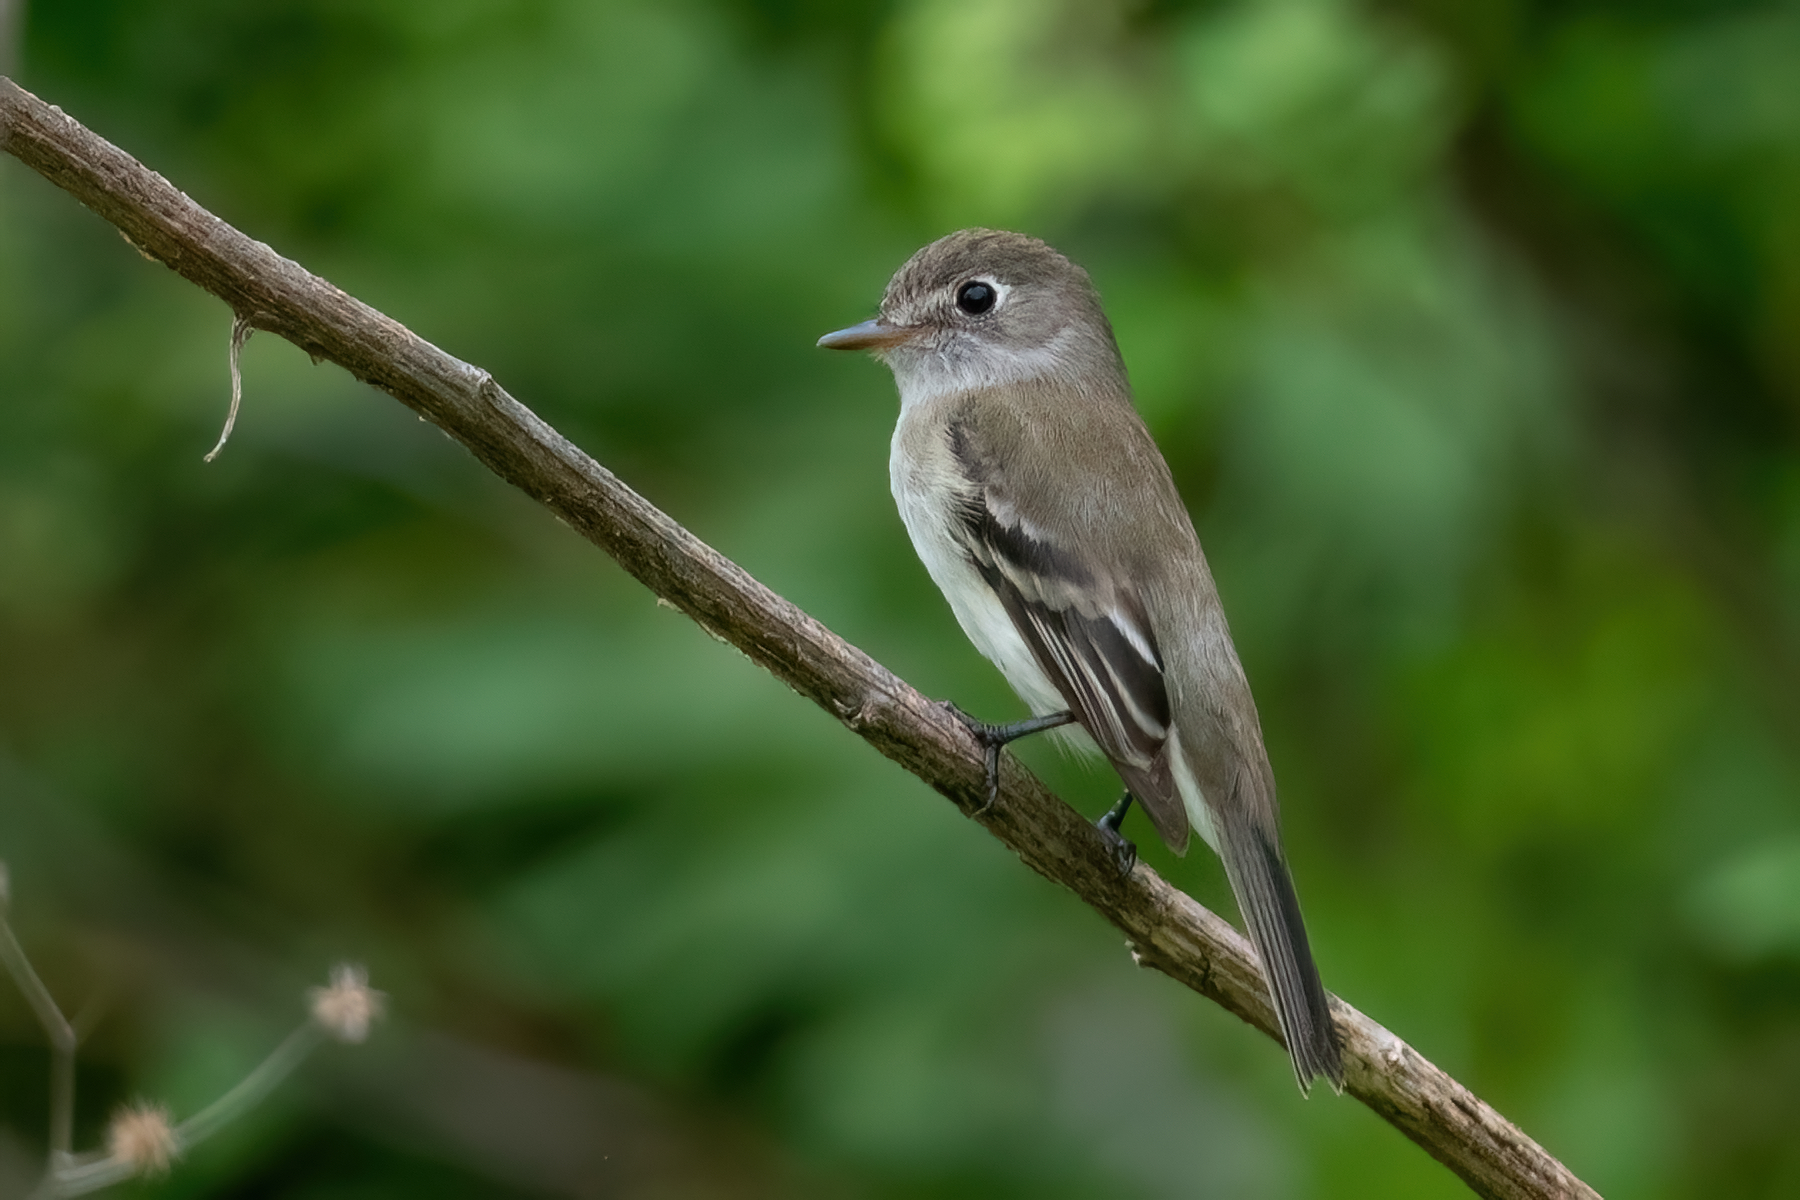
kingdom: Animalia
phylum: Chordata
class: Aves
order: Passeriformes
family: Tyrannidae
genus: Empidonax
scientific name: Empidonax minimus
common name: Least flycatcher
